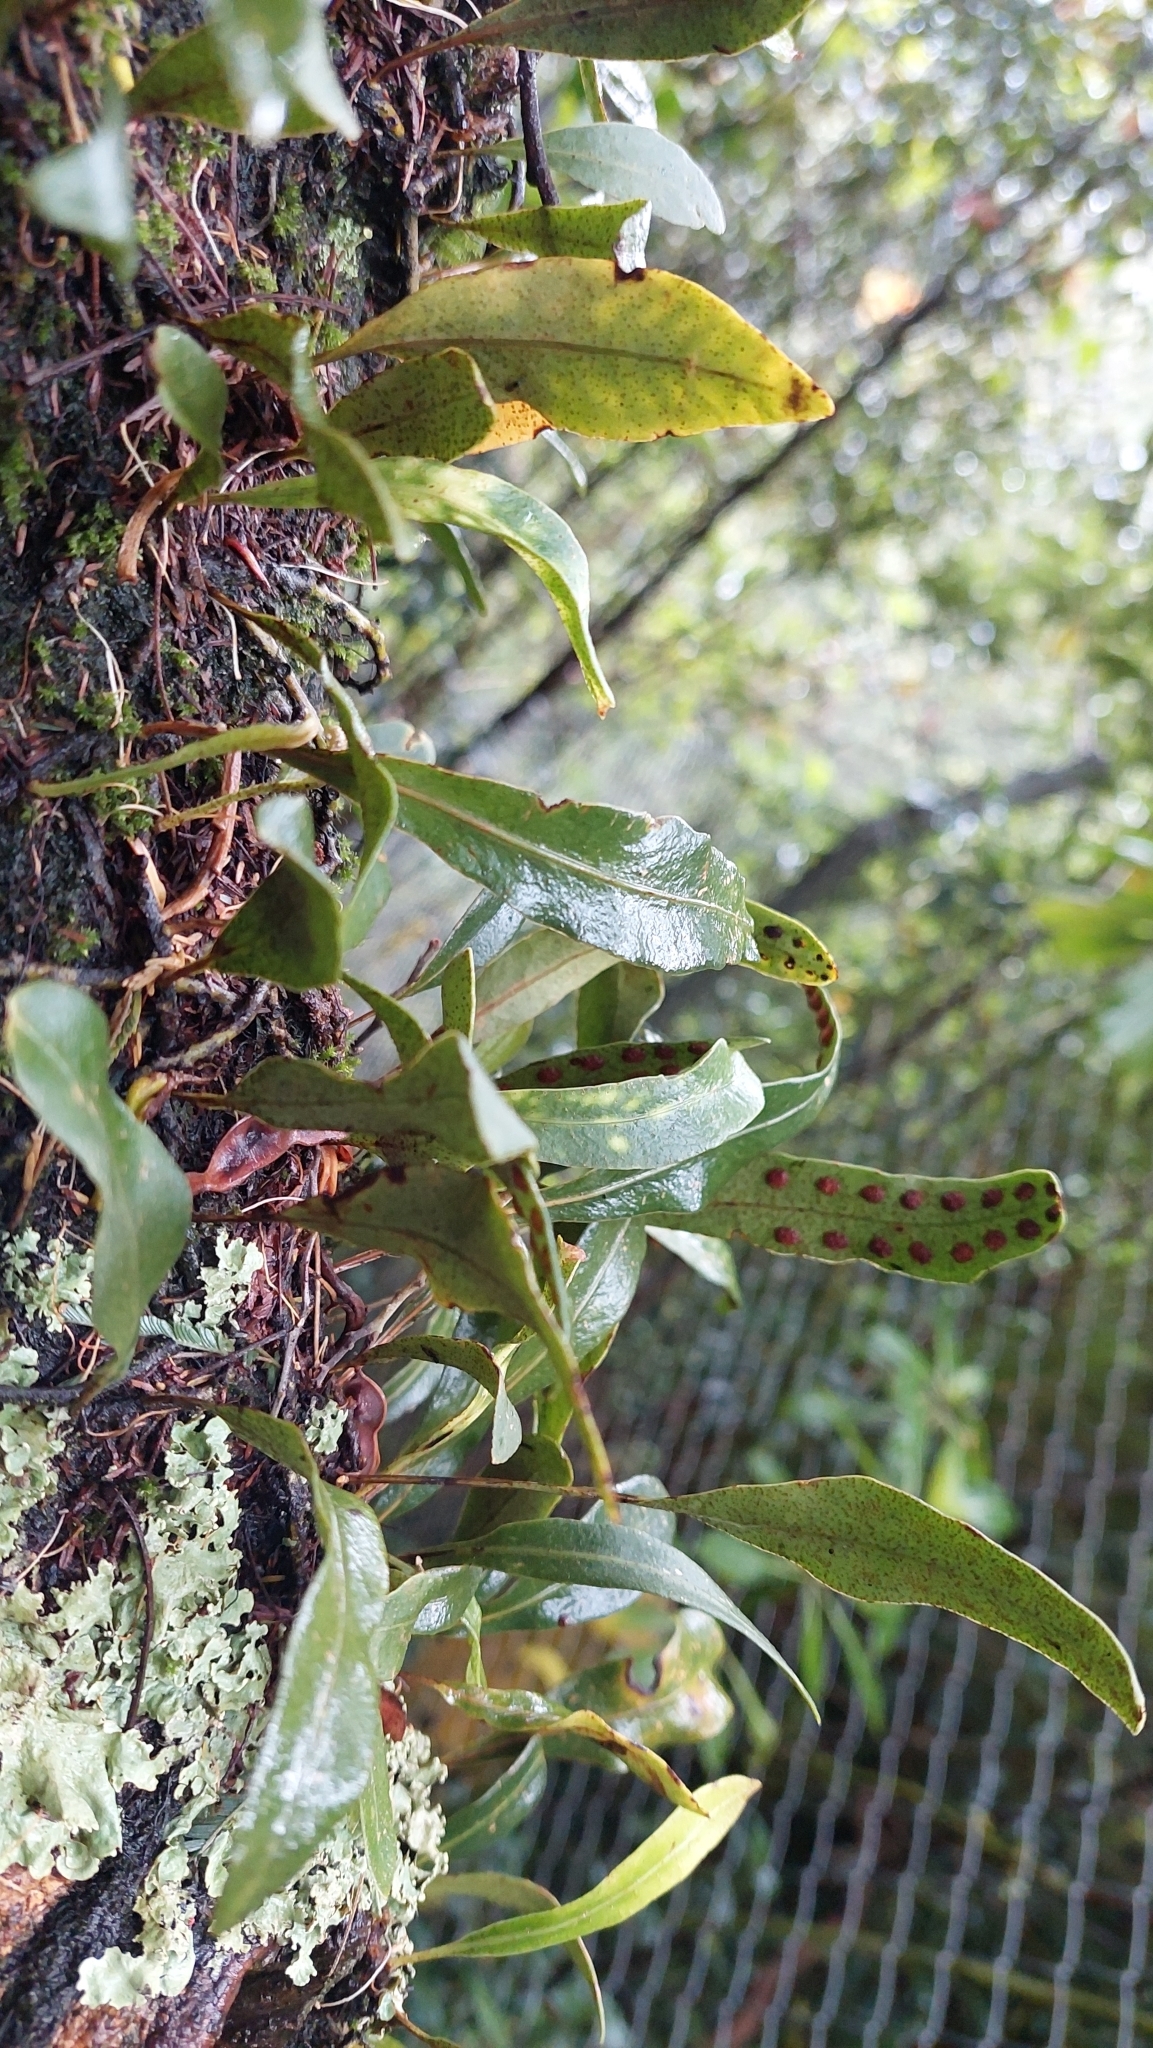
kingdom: Plantae
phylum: Tracheophyta
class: Polypodiopsida
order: Polypodiales
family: Polypodiaceae
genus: Pleopeltis
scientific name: Pleopeltis macrocarpa
